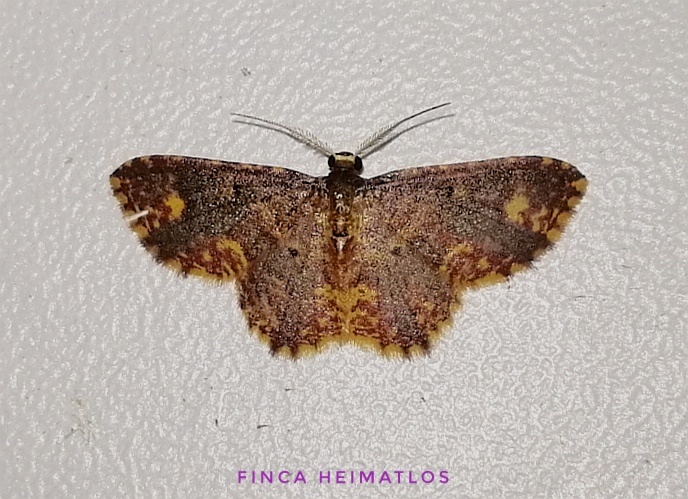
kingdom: Animalia
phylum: Arthropoda
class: Insecta
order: Lepidoptera
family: Geometridae
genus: Eois
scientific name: Eois lunifera
